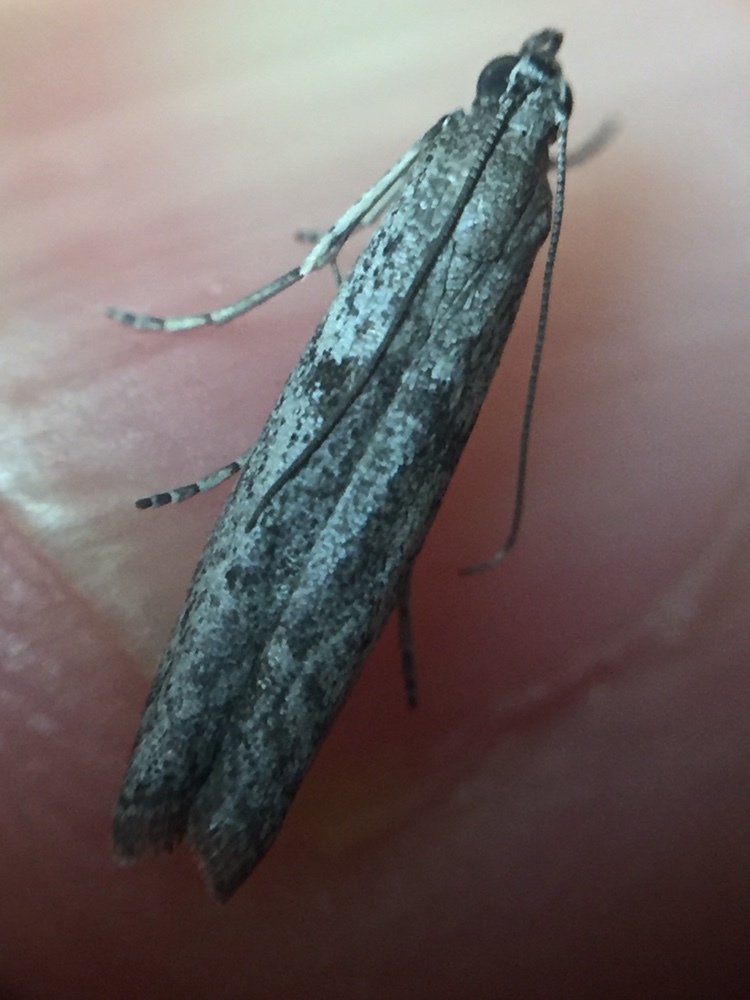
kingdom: Animalia
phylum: Arthropoda
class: Insecta
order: Lepidoptera
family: Pyralidae
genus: Patagoniodes
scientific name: Patagoniodes farinaria
